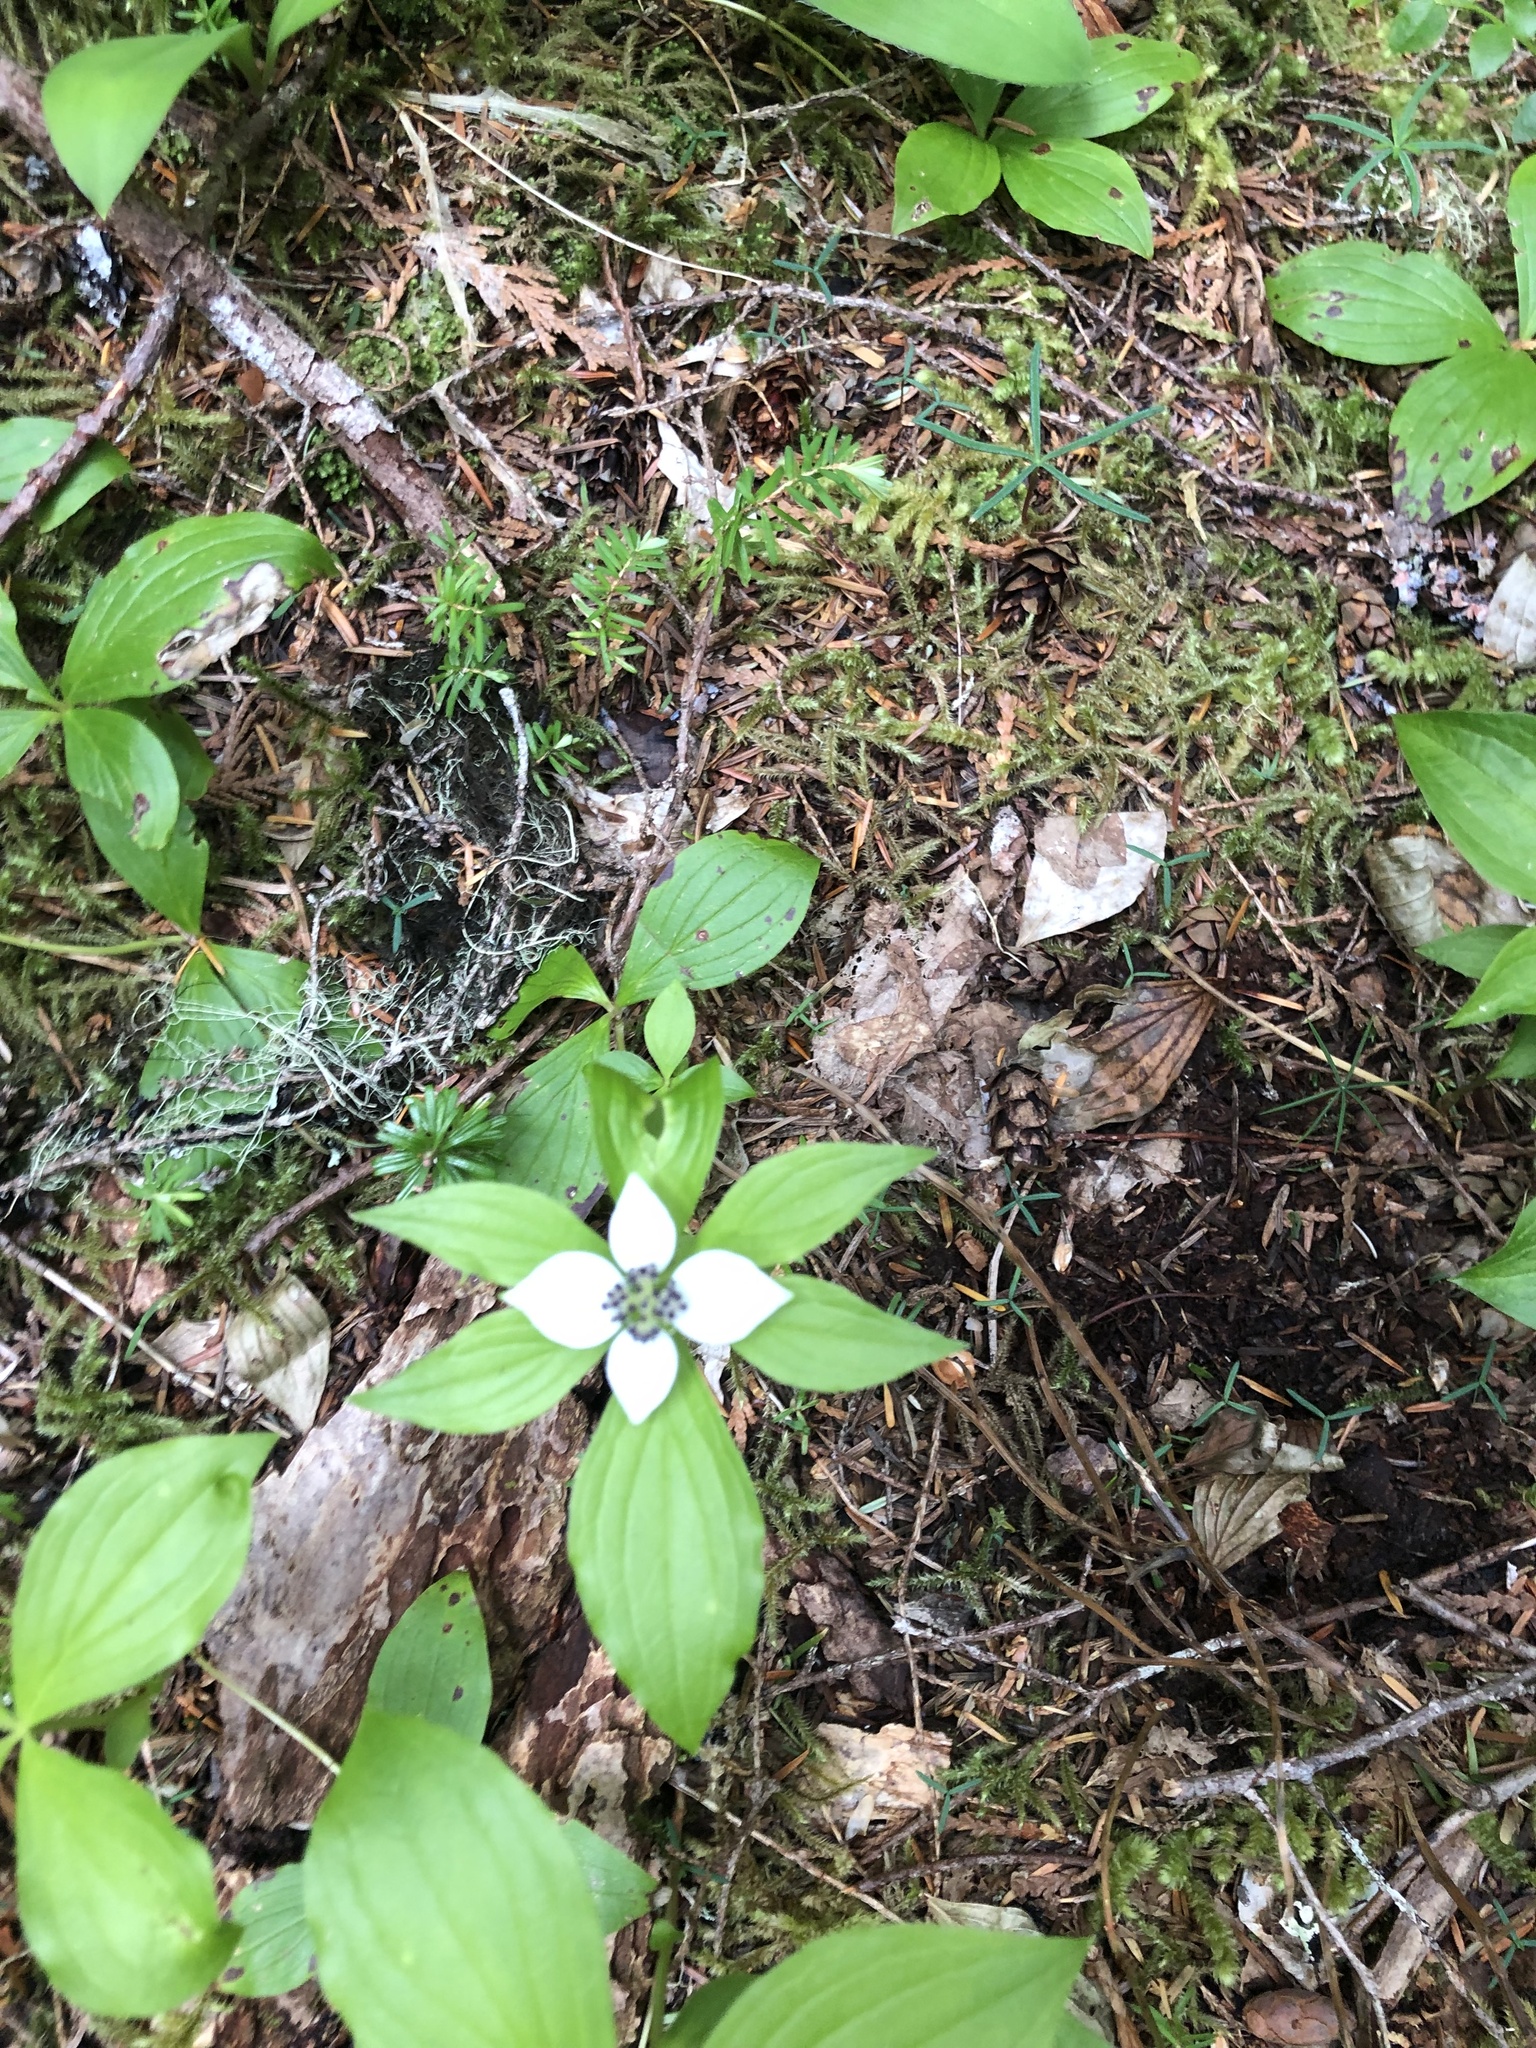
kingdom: Plantae
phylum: Tracheophyta
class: Magnoliopsida
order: Cornales
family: Cornaceae
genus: Cornus
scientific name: Cornus unalaschkensis
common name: Alaska bunchberry
